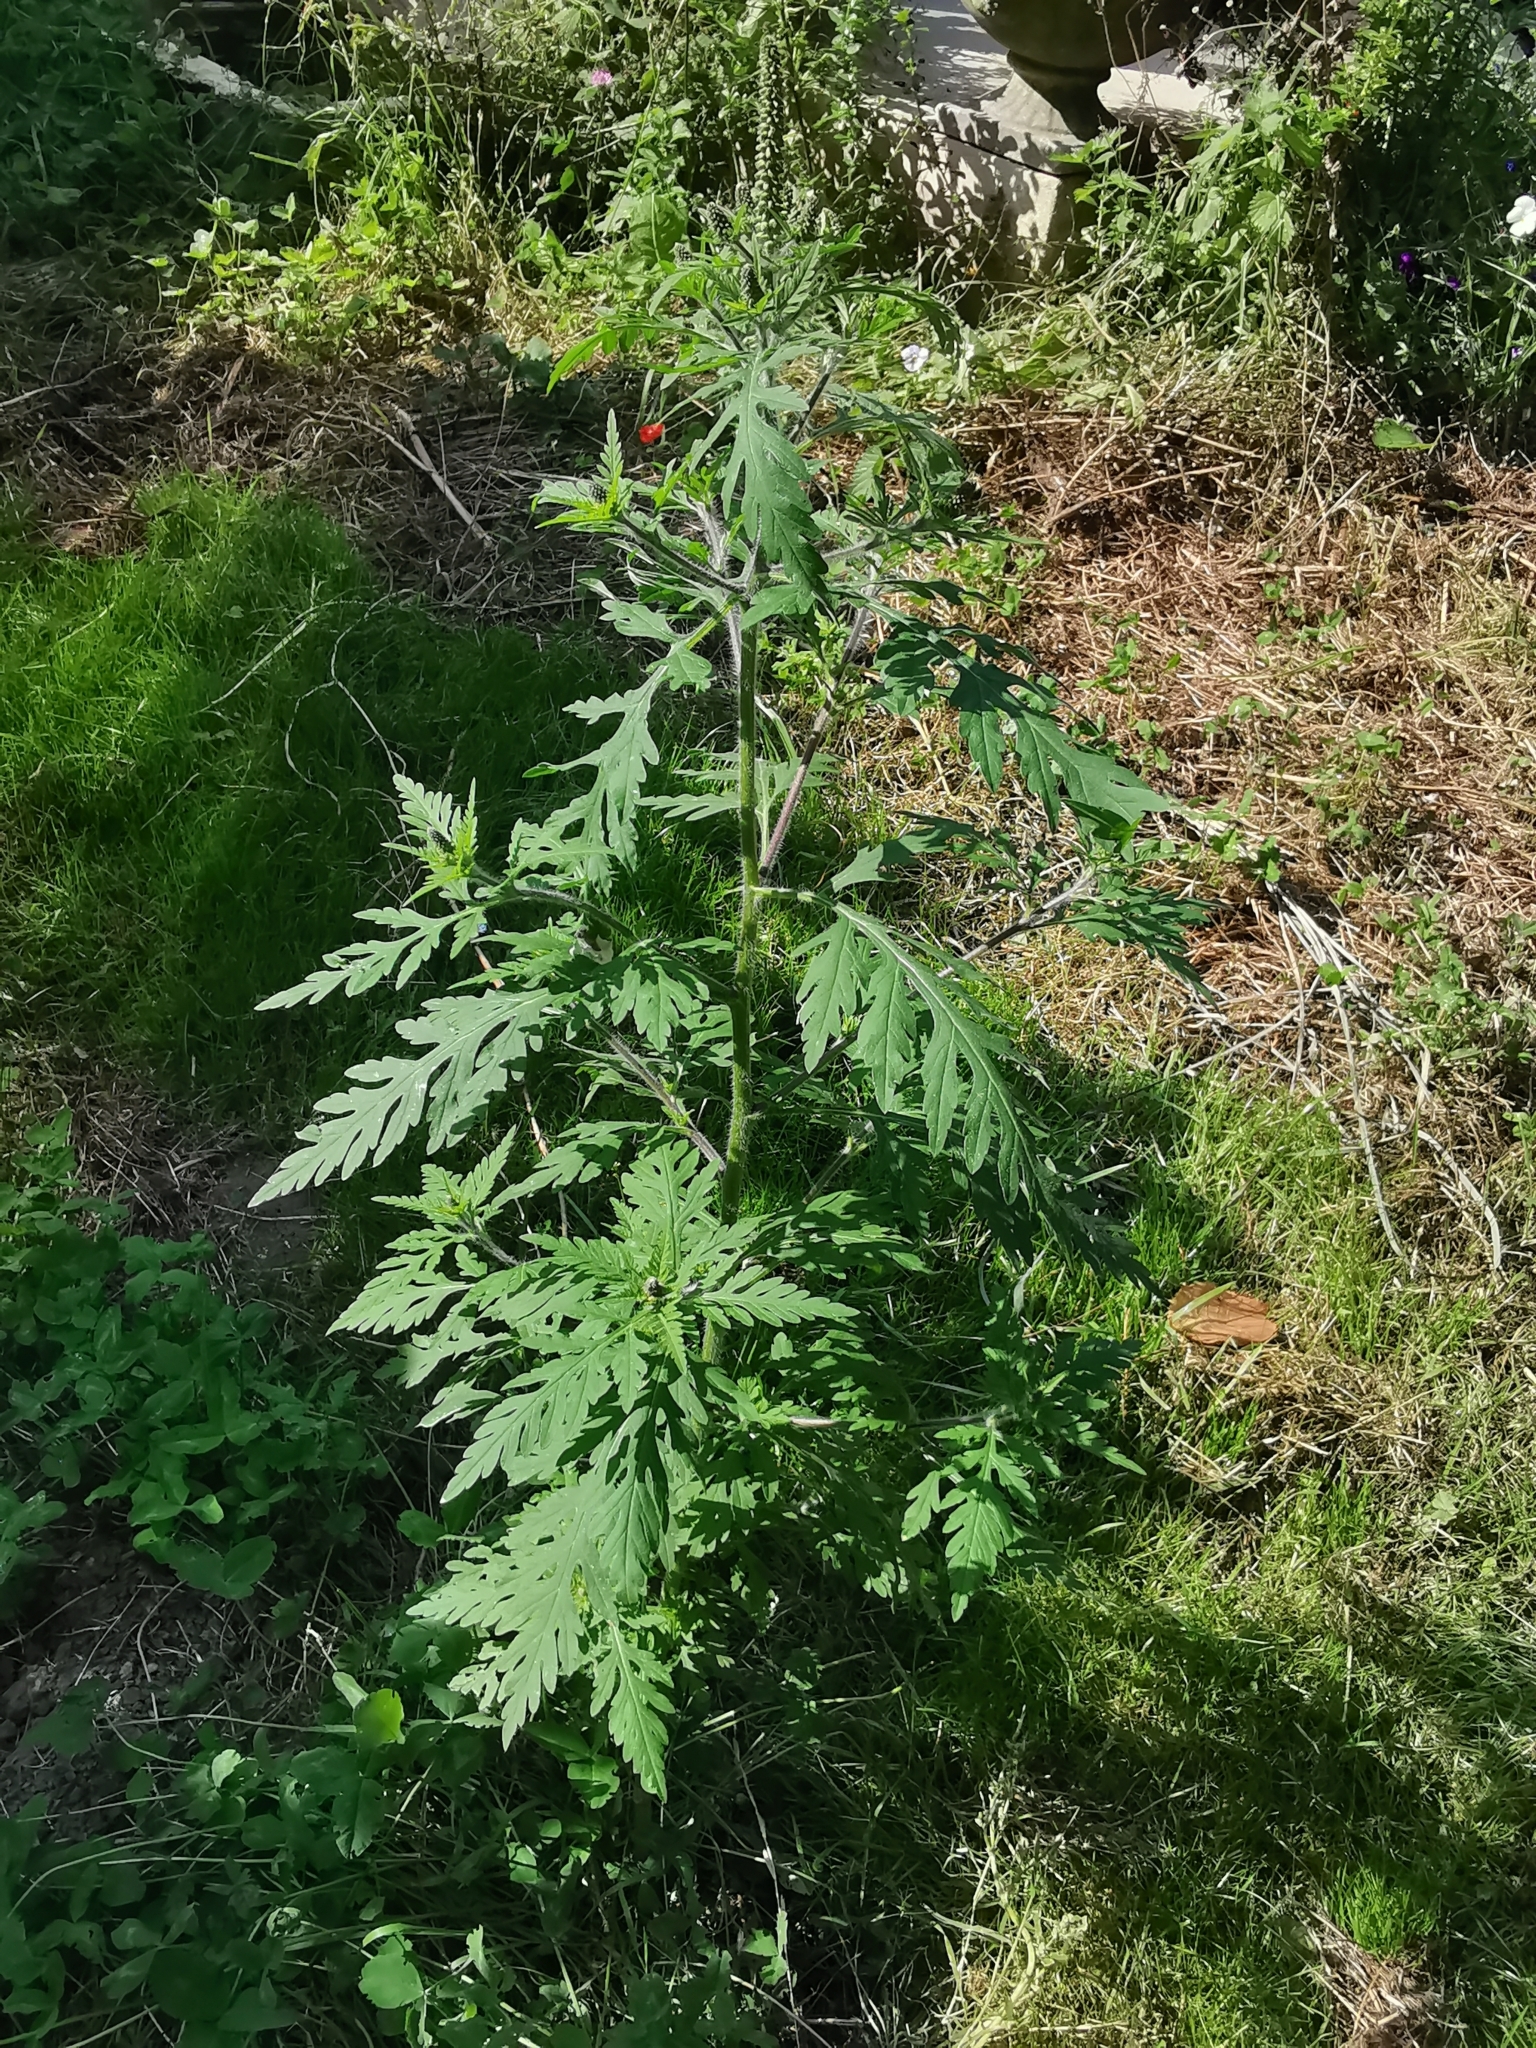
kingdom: Plantae
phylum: Tracheophyta
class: Magnoliopsida
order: Asterales
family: Asteraceae
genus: Ambrosia
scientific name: Ambrosia artemisiifolia
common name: Annual ragweed
